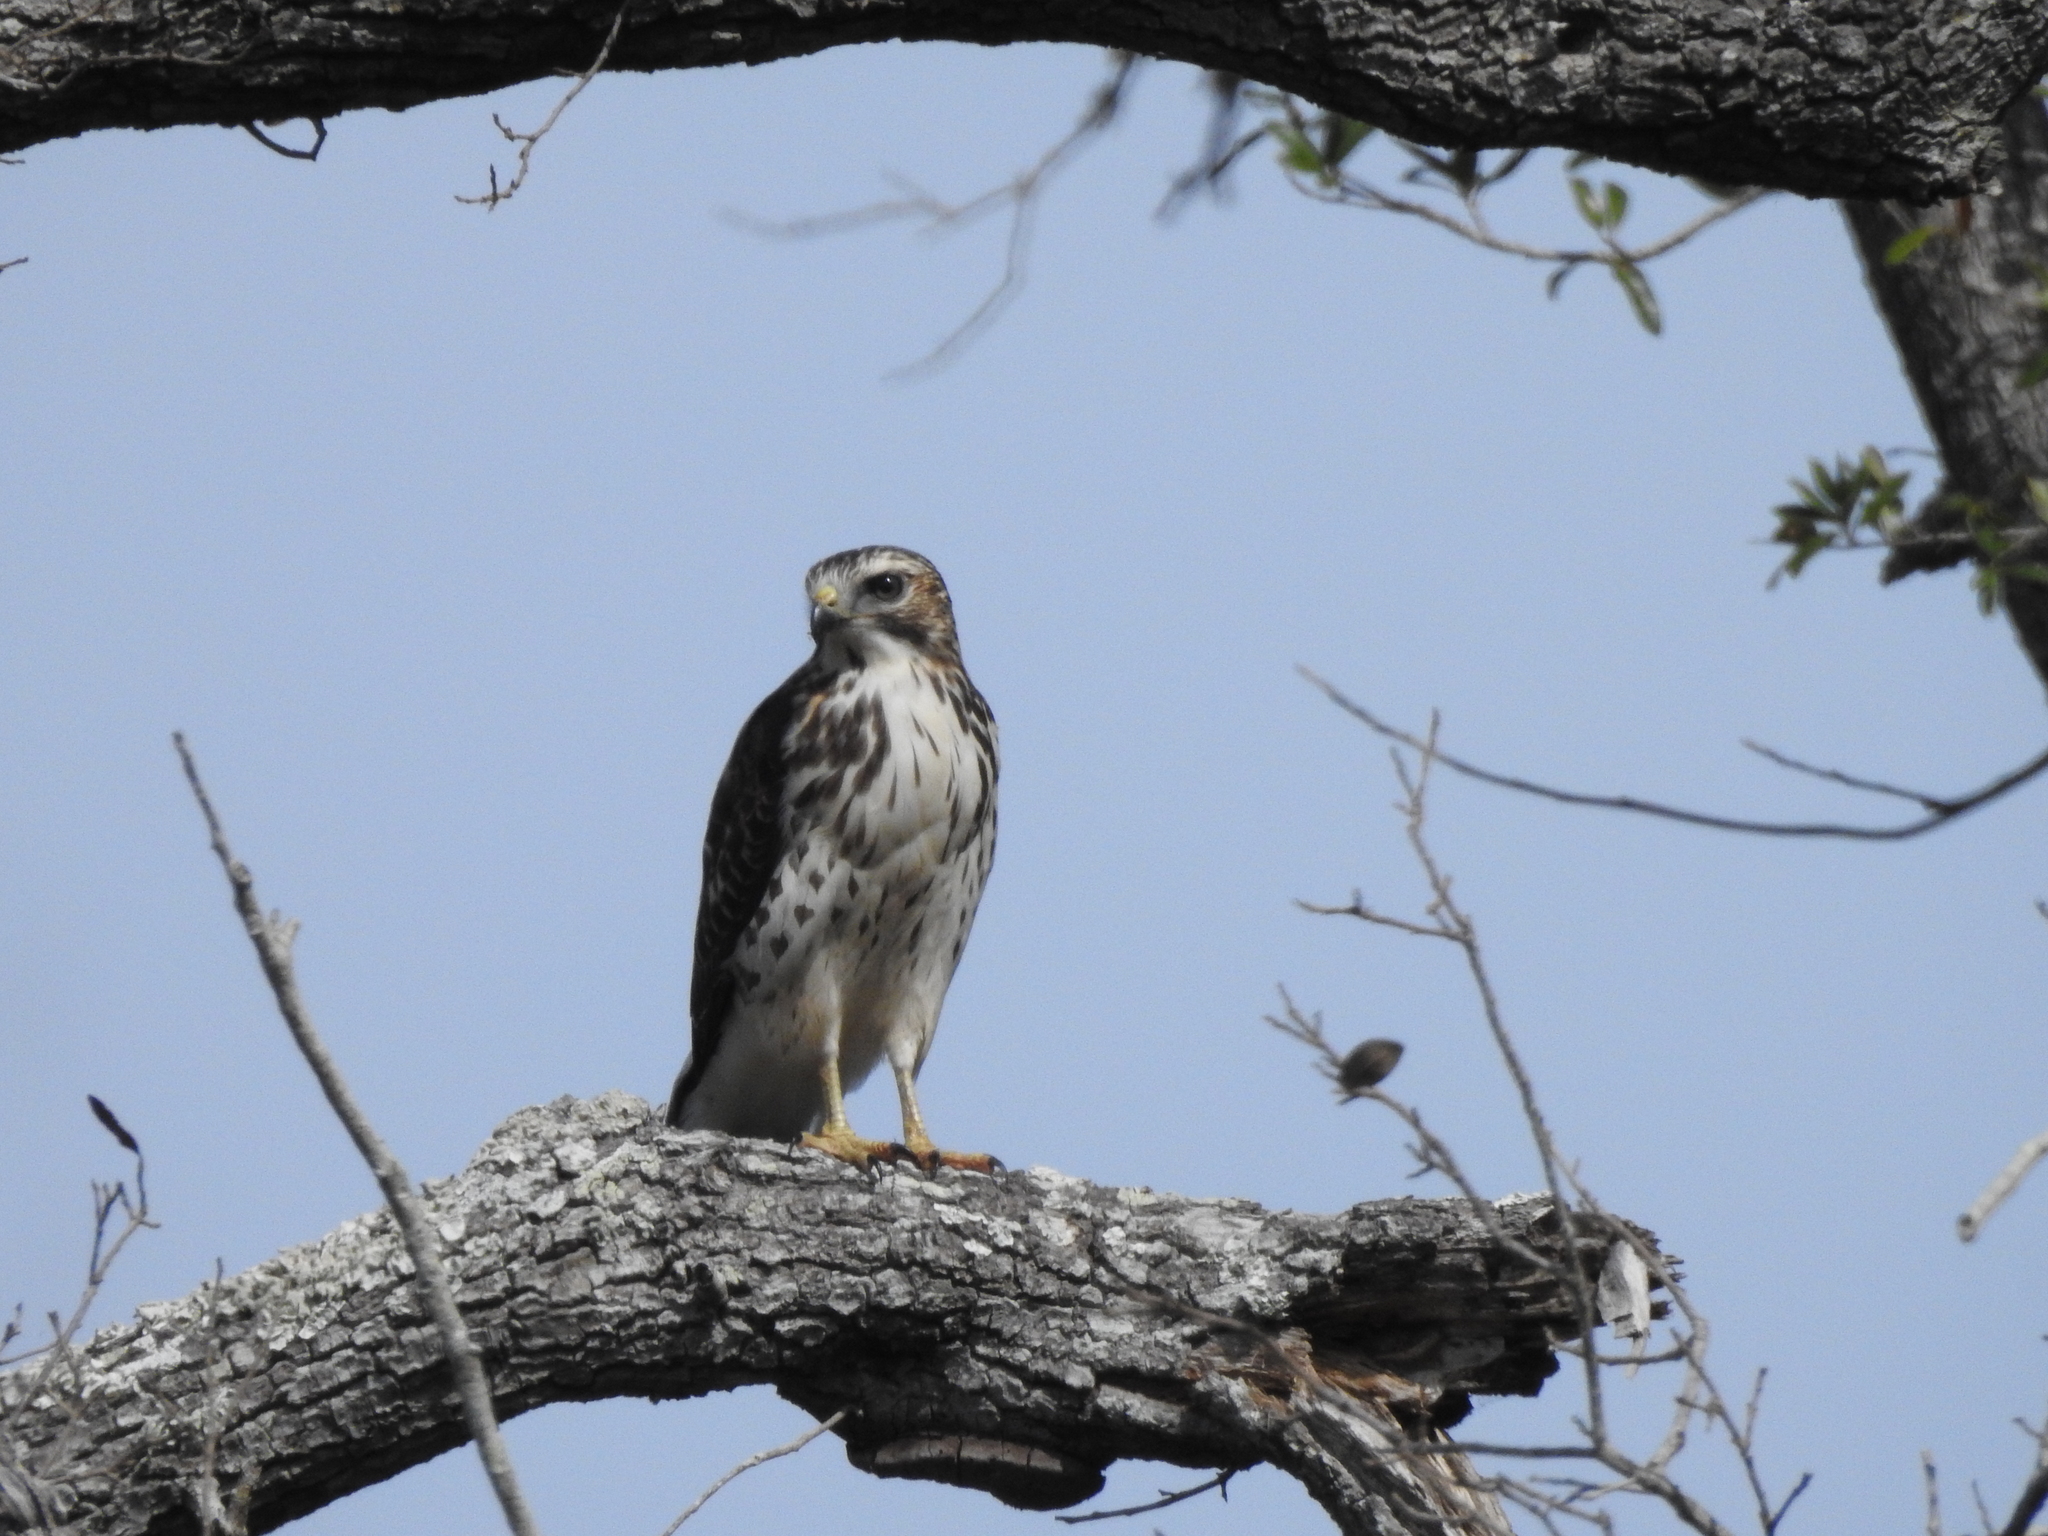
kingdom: Animalia
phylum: Chordata
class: Aves
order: Accipitriformes
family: Accipitridae
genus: Buteo
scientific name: Buteo platypterus
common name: Broad-winged hawk
